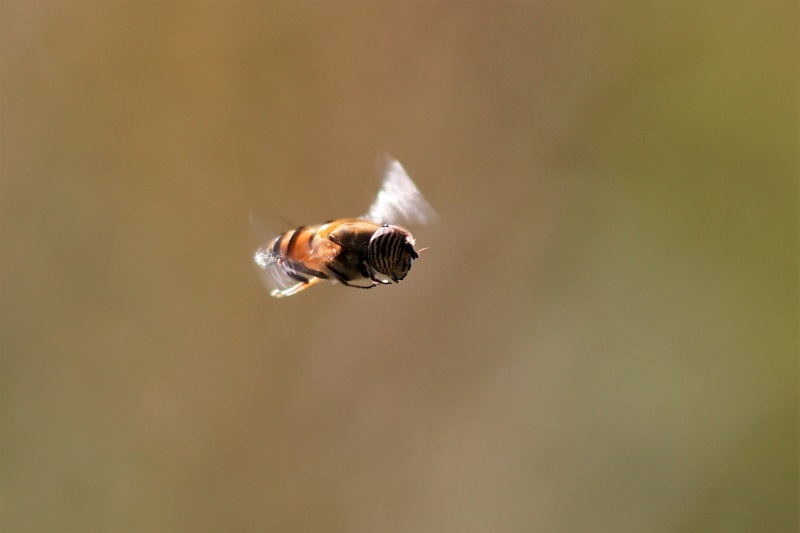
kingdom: Animalia
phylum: Arthropoda
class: Insecta
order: Diptera
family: Syrphidae
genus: Eristalinus
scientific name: Eristalinus taeniops
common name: Syrphid fly
